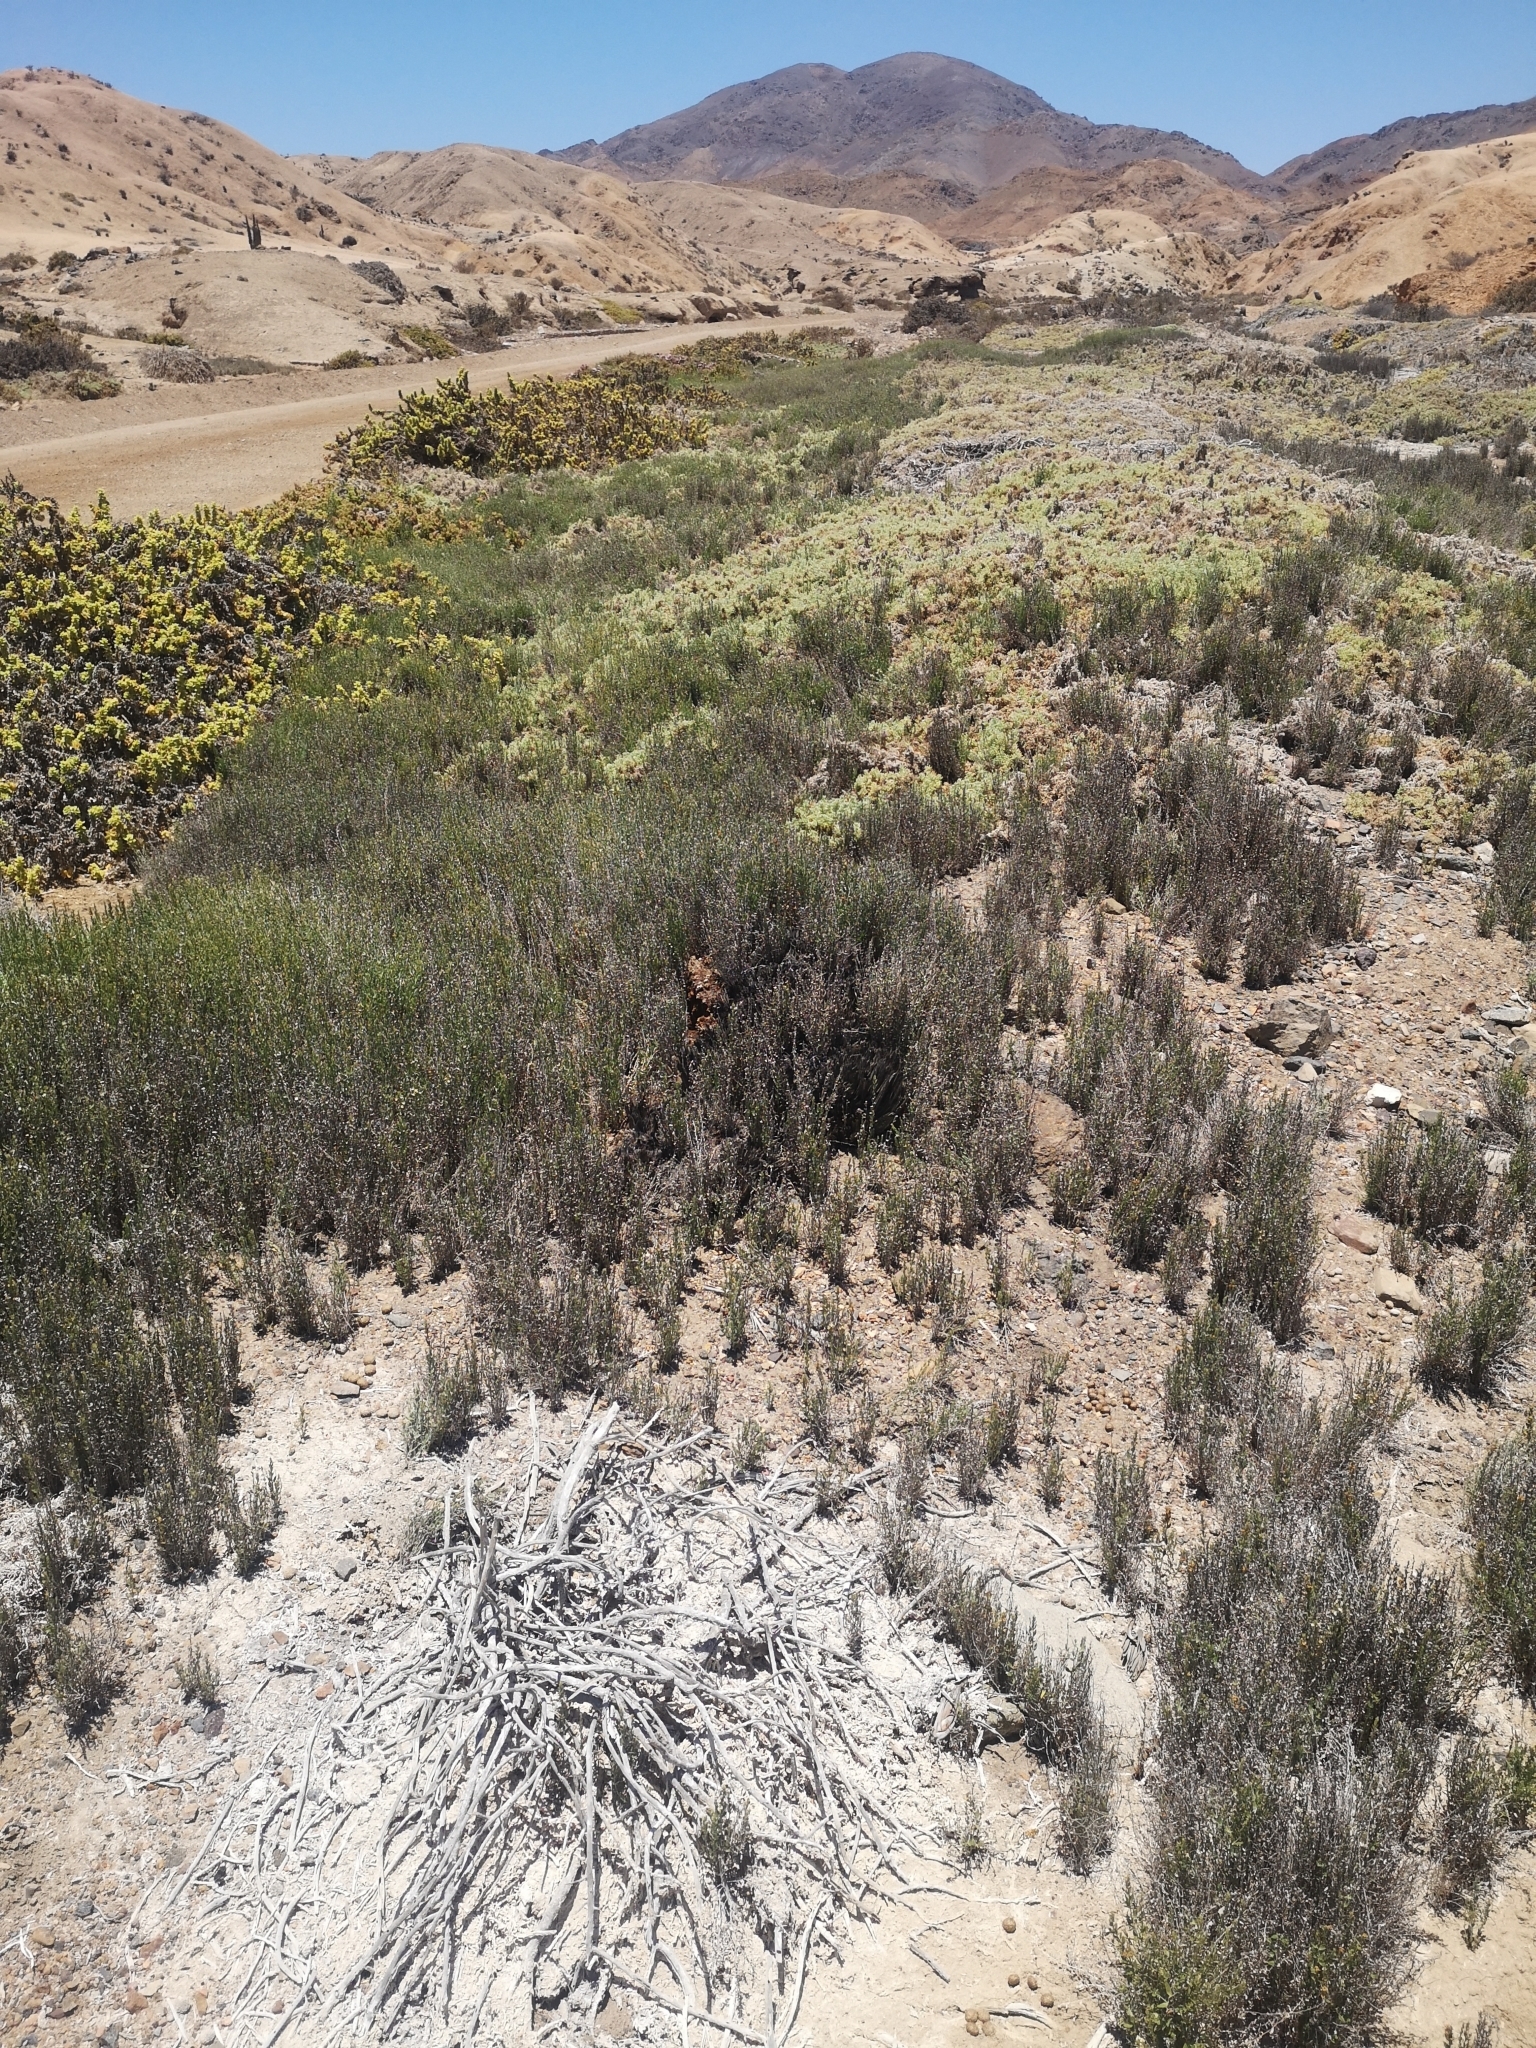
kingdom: Plantae
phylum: Tracheophyta
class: Magnoliopsida
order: Solanales
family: Convolvulaceae
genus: Cressa
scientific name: Cressa truxillensis
